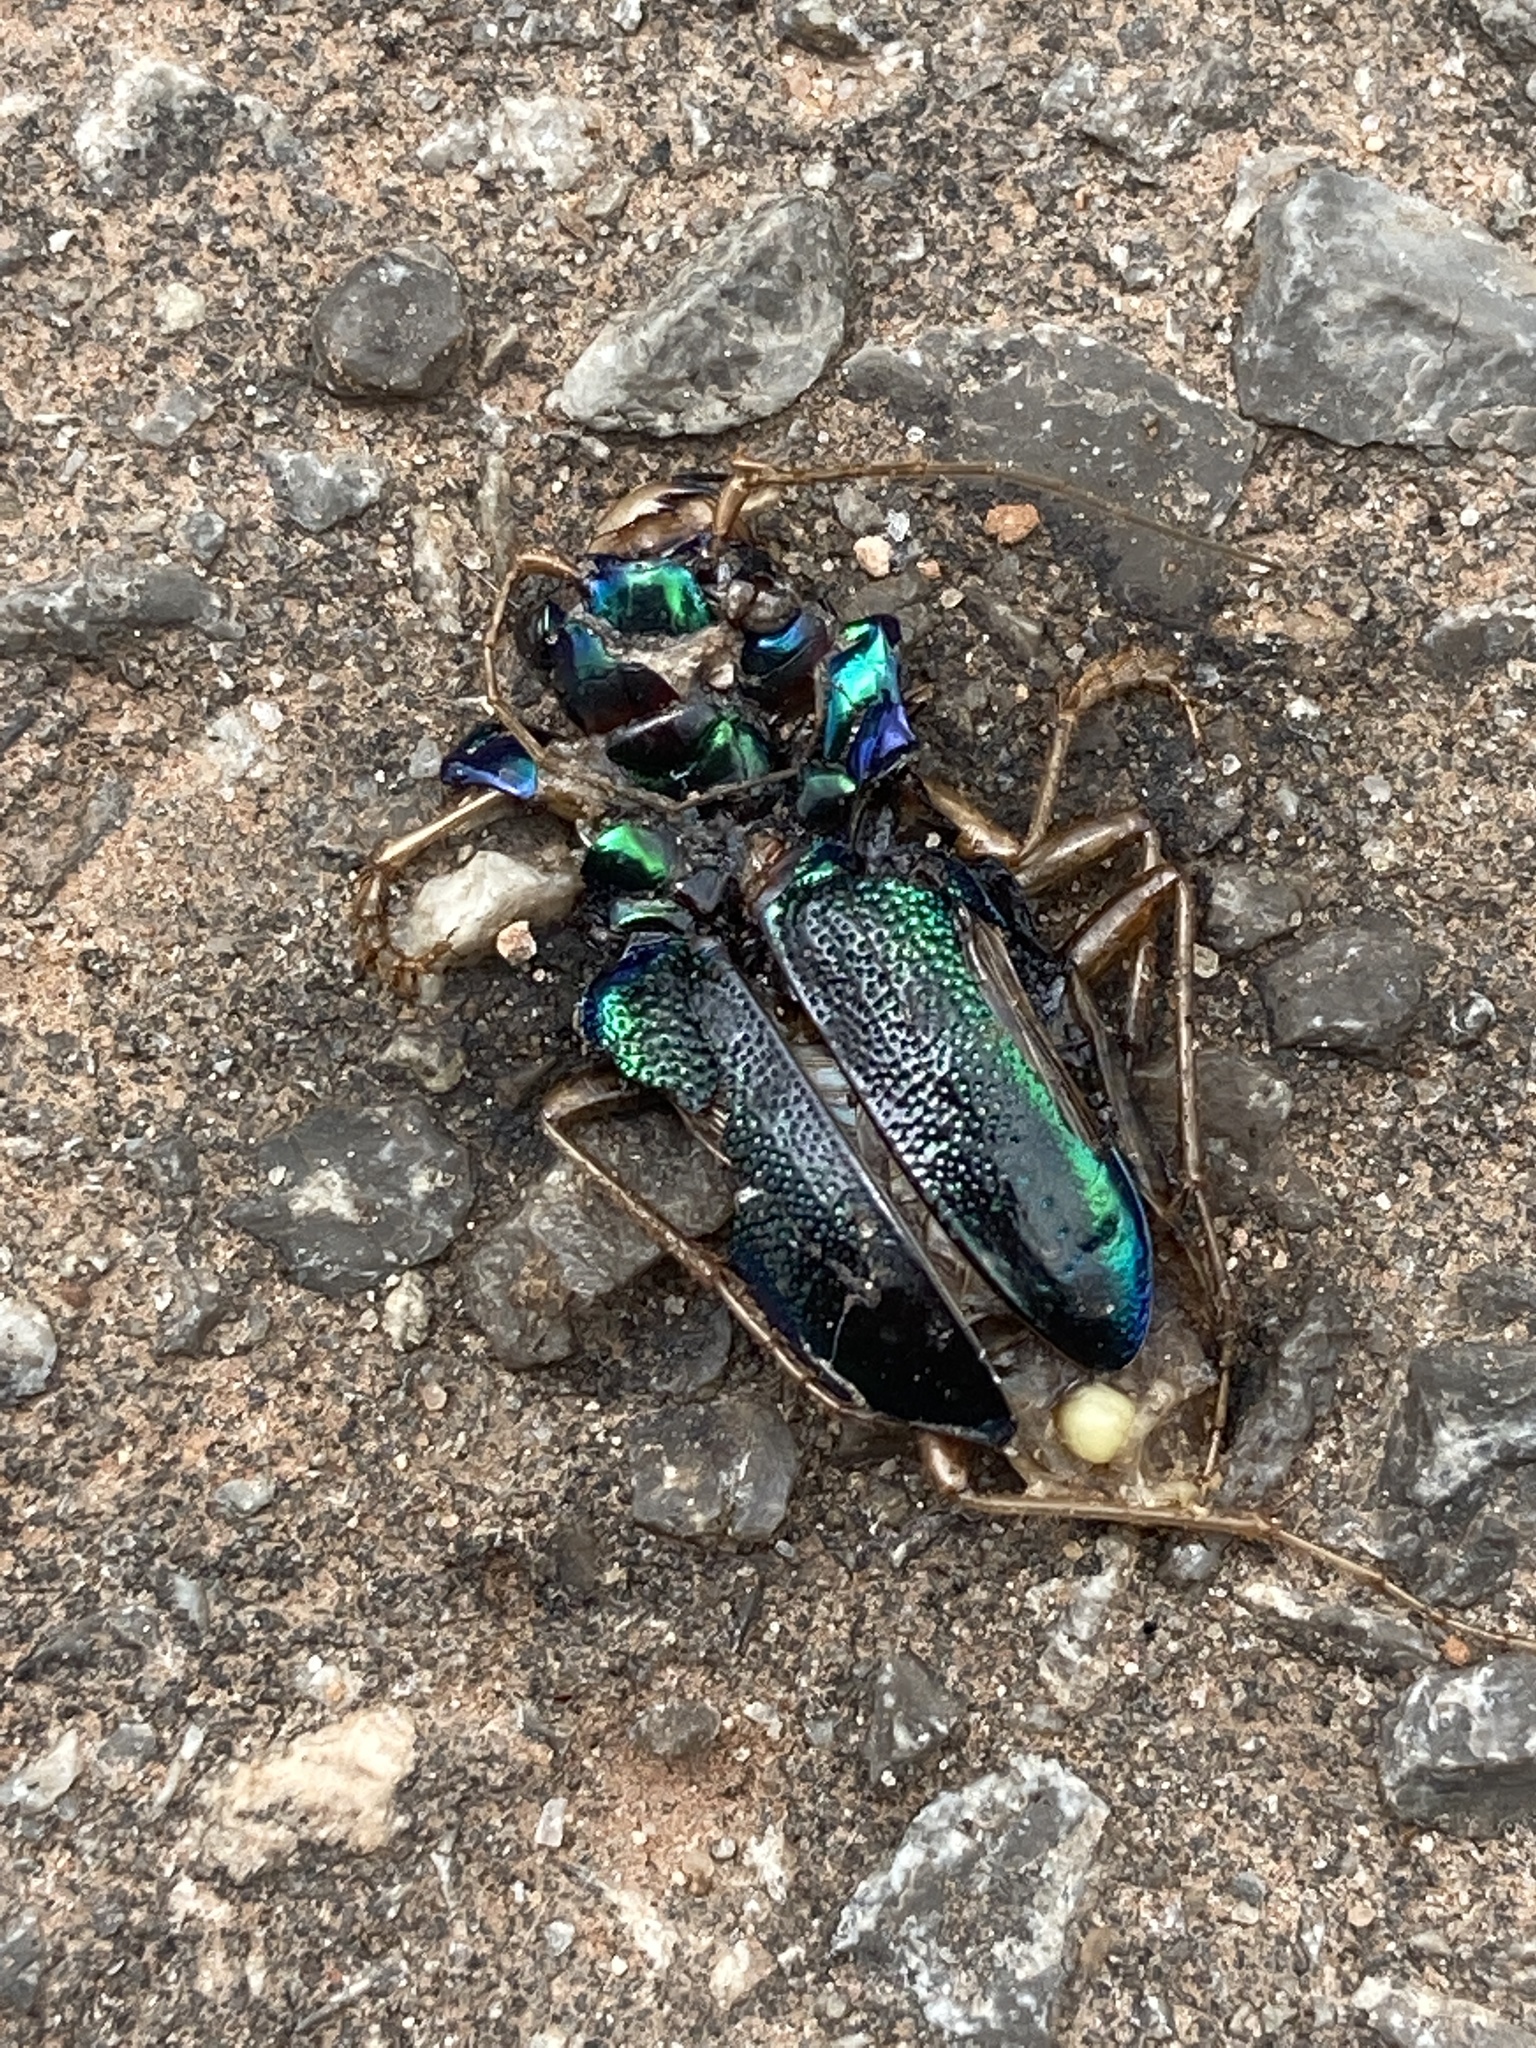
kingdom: Animalia
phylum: Arthropoda
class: Insecta
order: Coleoptera
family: Carabidae
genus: Tetracha
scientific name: Tetracha virginica
